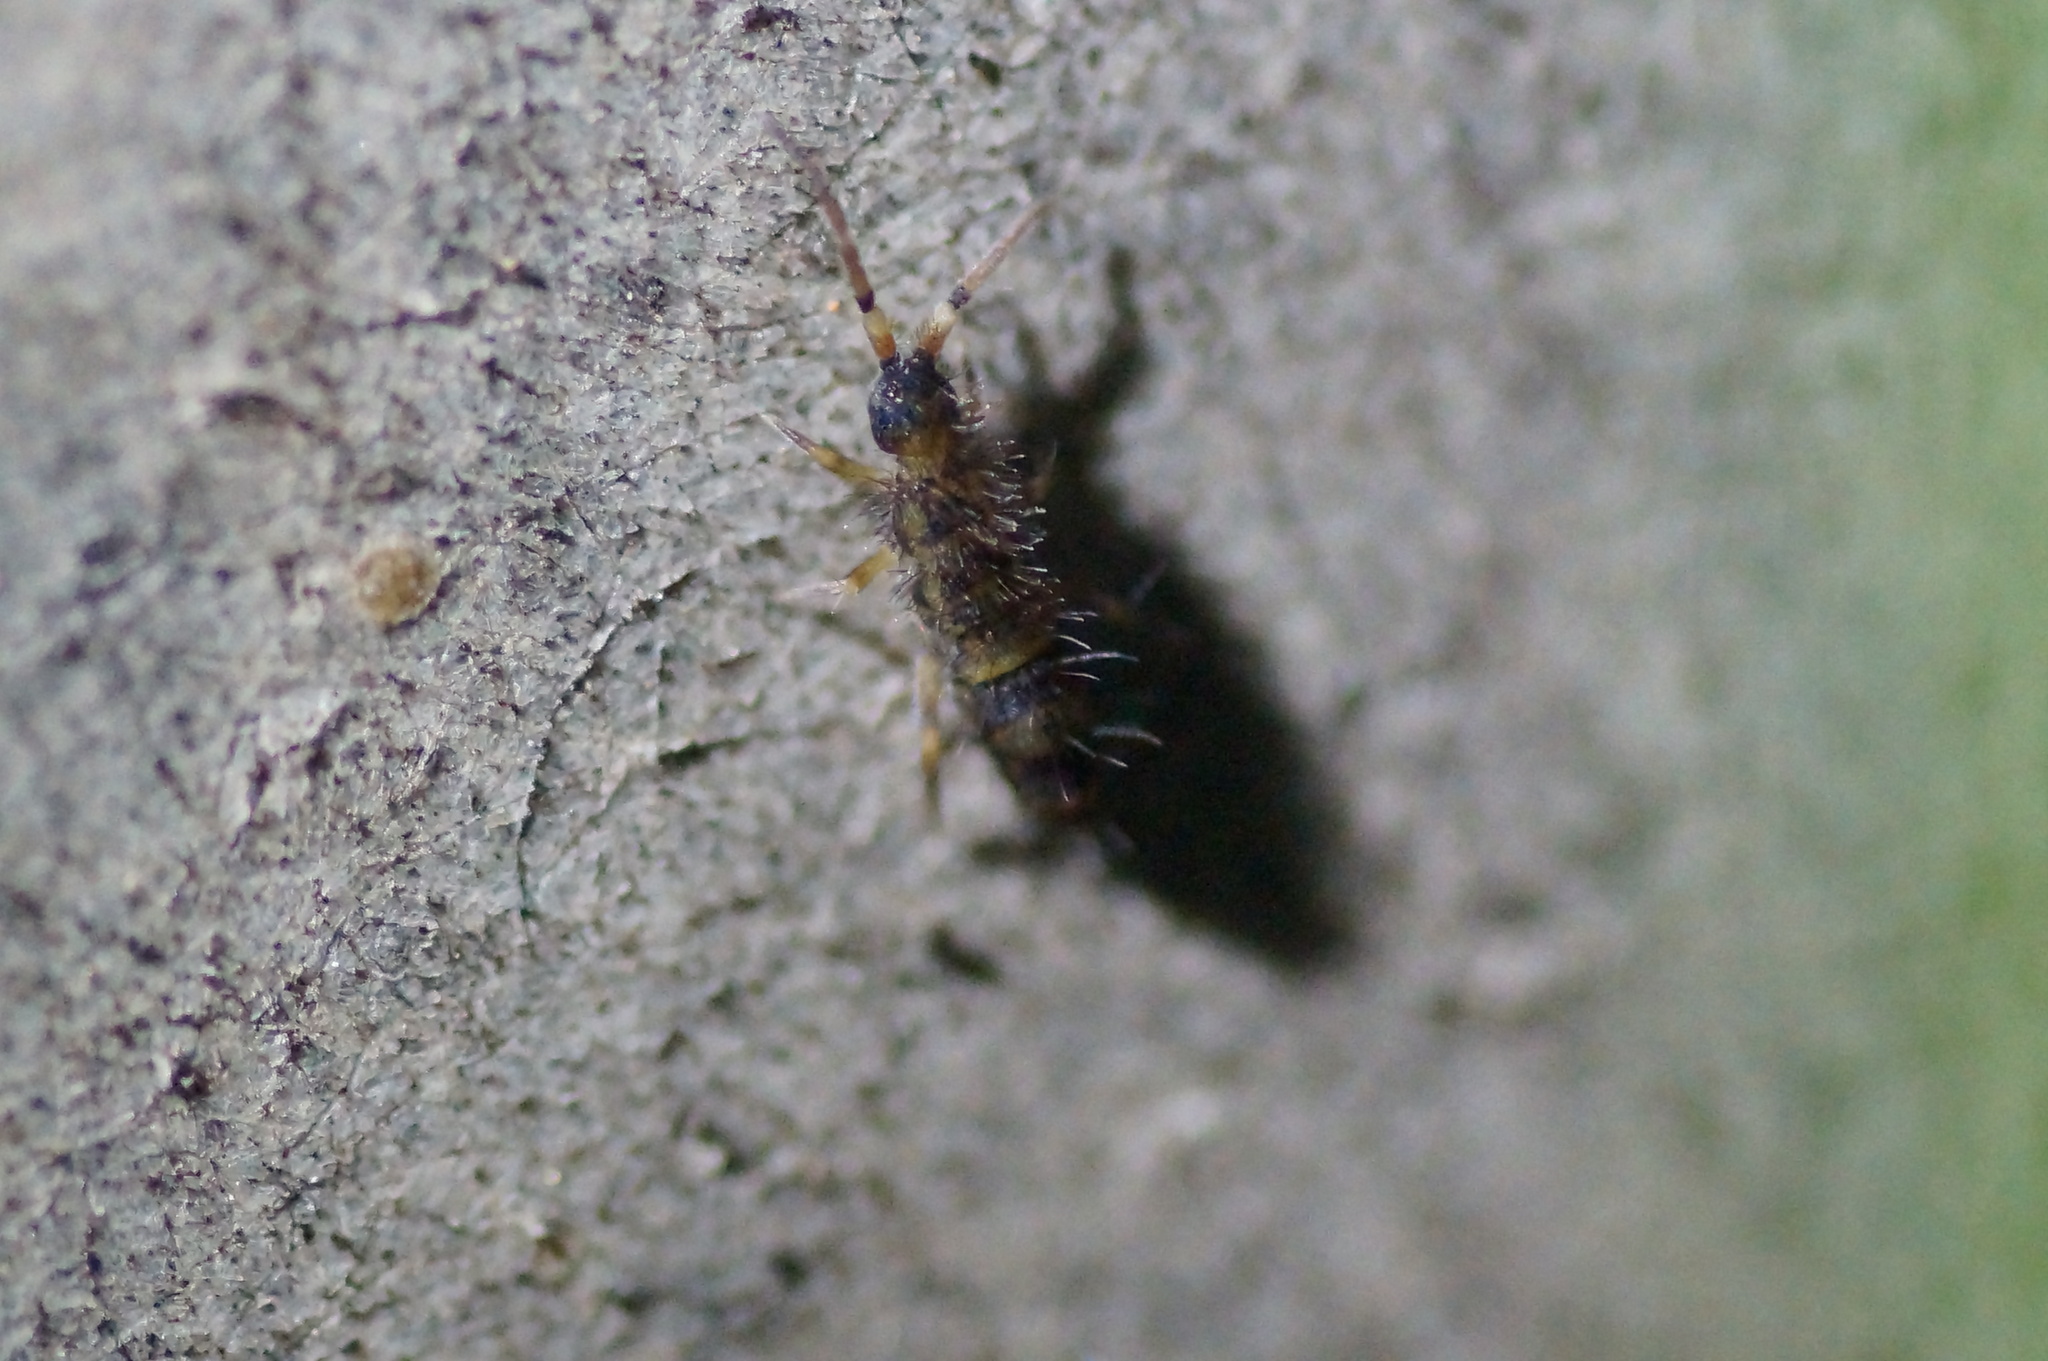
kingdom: Animalia
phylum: Arthropoda
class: Collembola
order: Entomobryomorpha
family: Orchesellidae
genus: Orchesella
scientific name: Orchesella cincta
